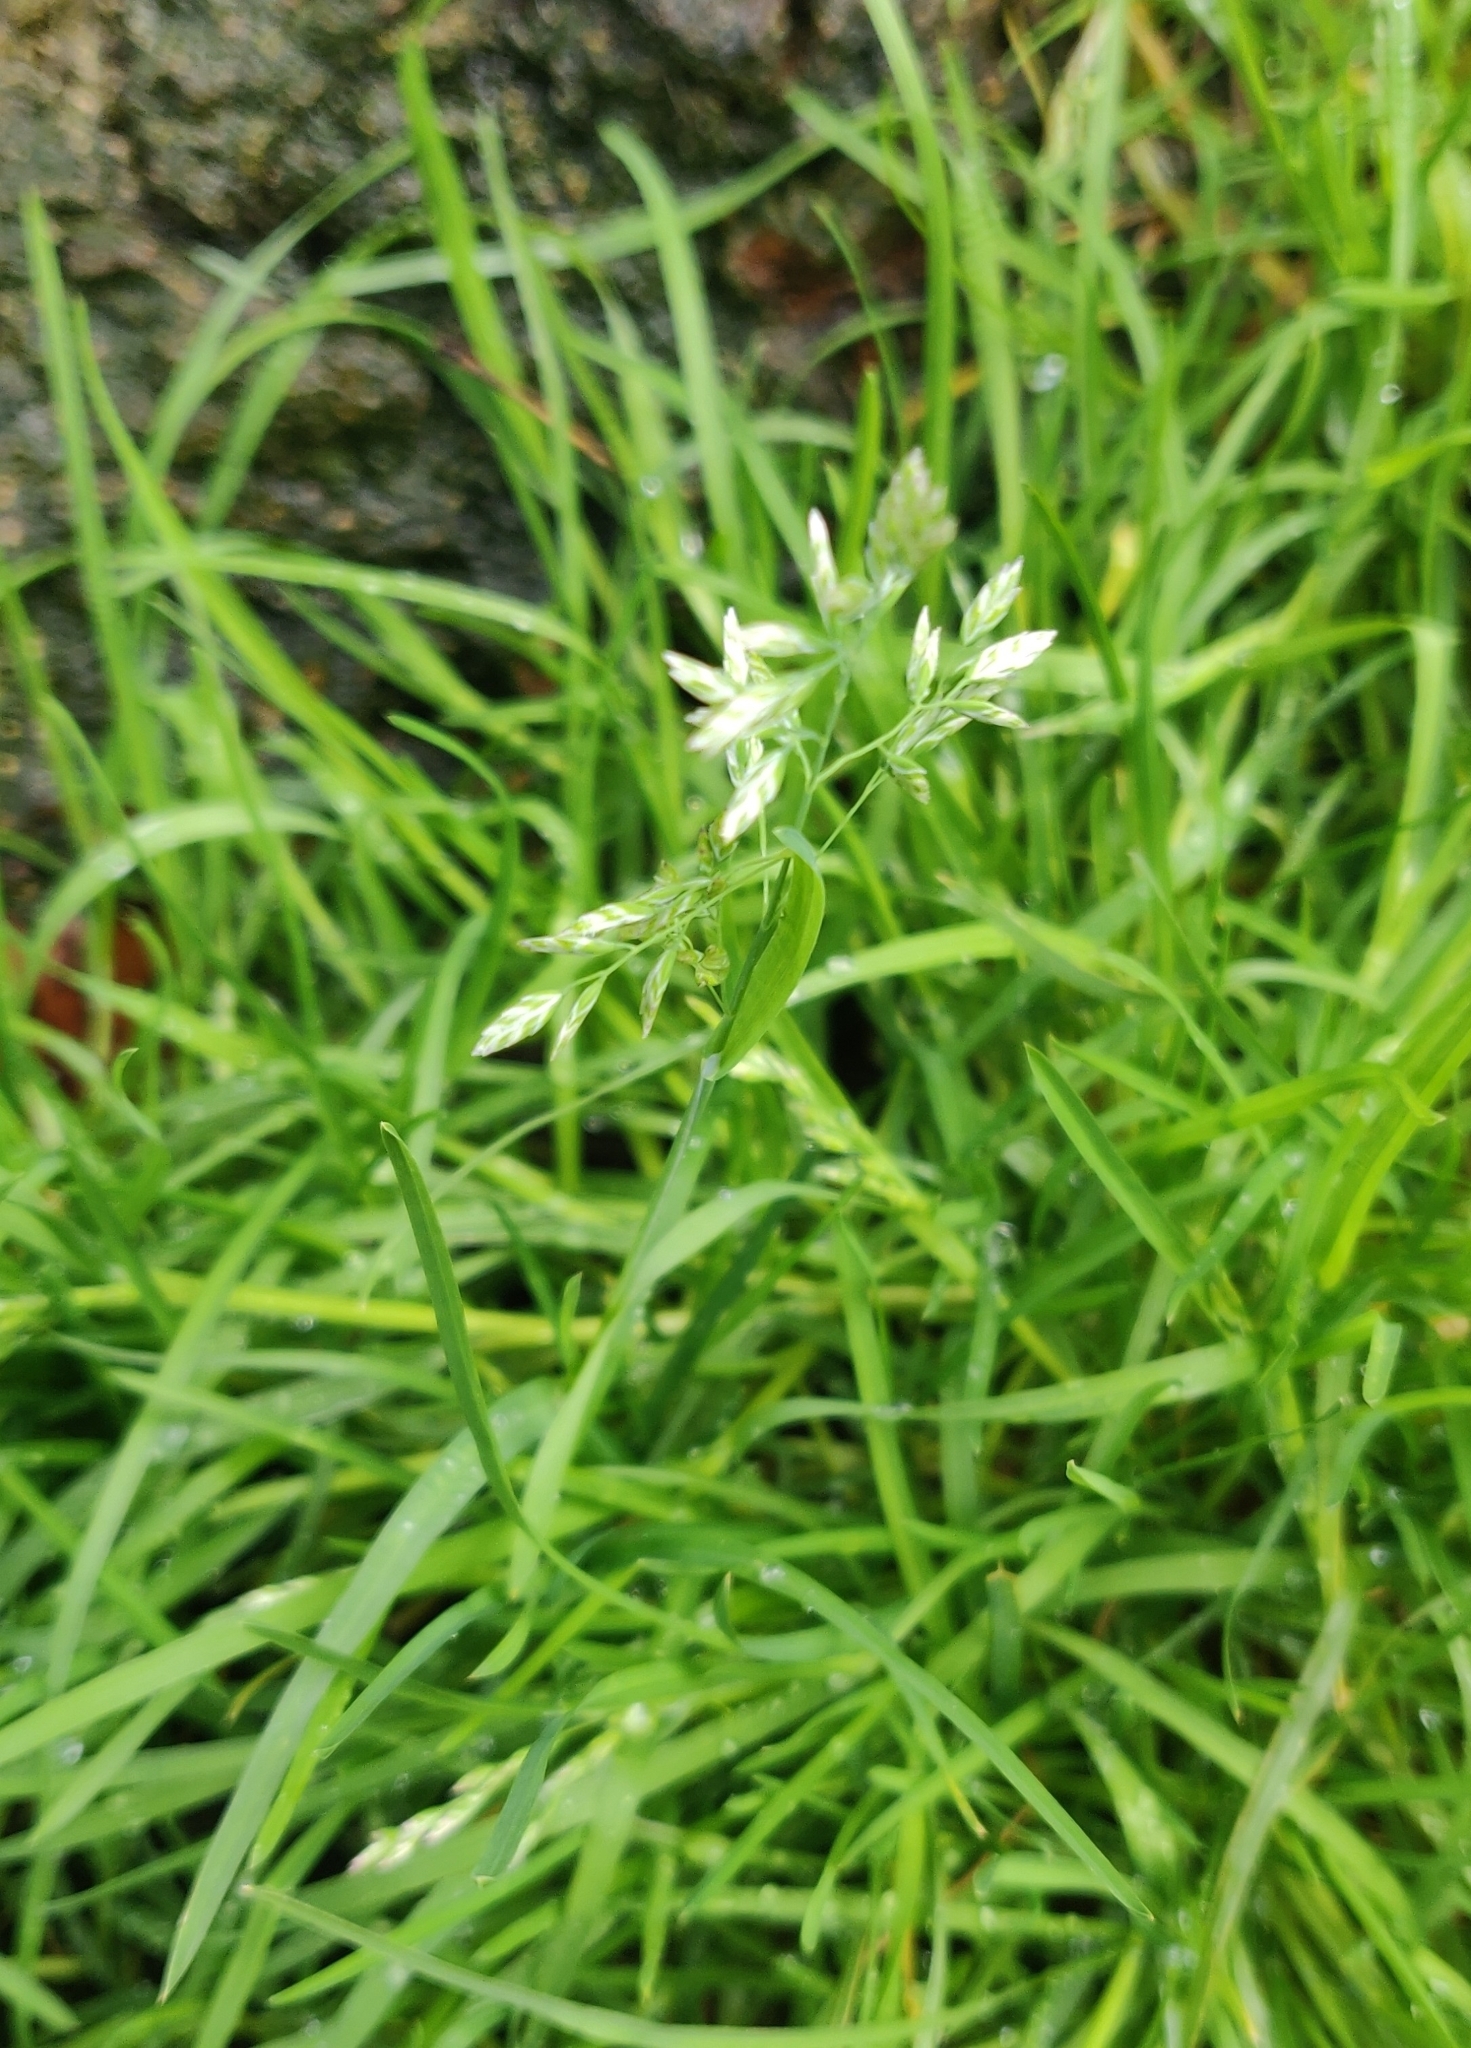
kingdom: Plantae
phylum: Tracheophyta
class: Liliopsida
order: Poales
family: Poaceae
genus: Poa
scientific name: Poa annua
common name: Annual bluegrass
